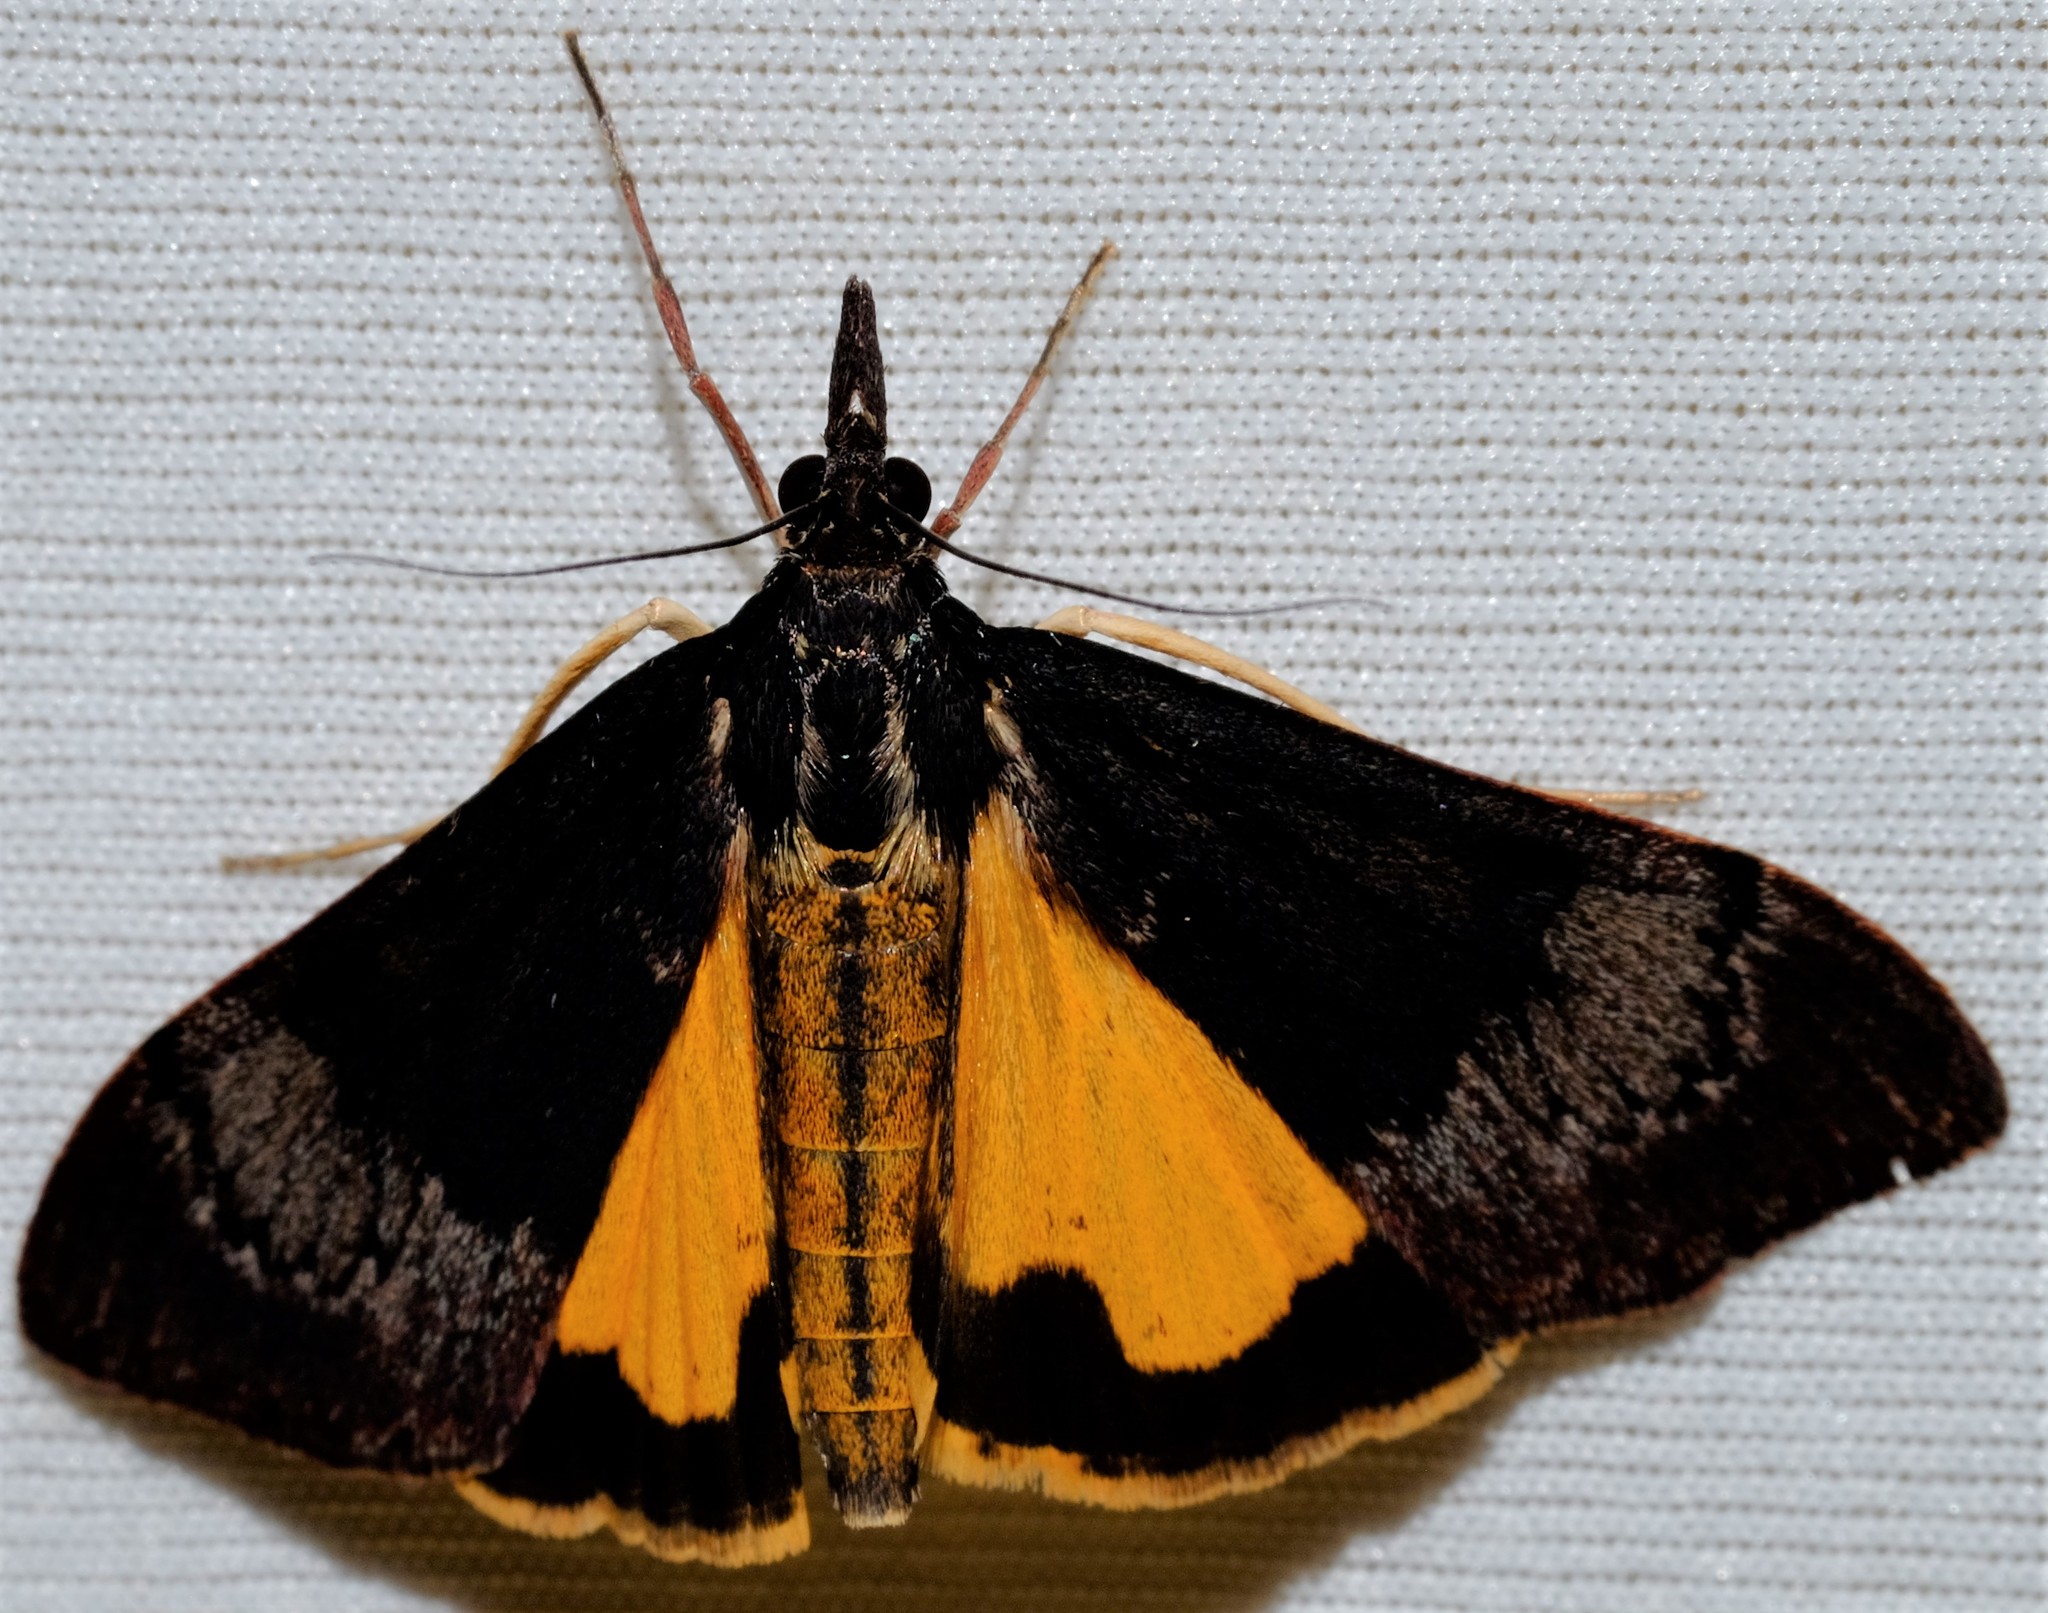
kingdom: Animalia
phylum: Arthropoda
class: Insecta
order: Lepidoptera
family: Crambidae
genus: Uresiphita
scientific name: Uresiphita ornithopteralis
